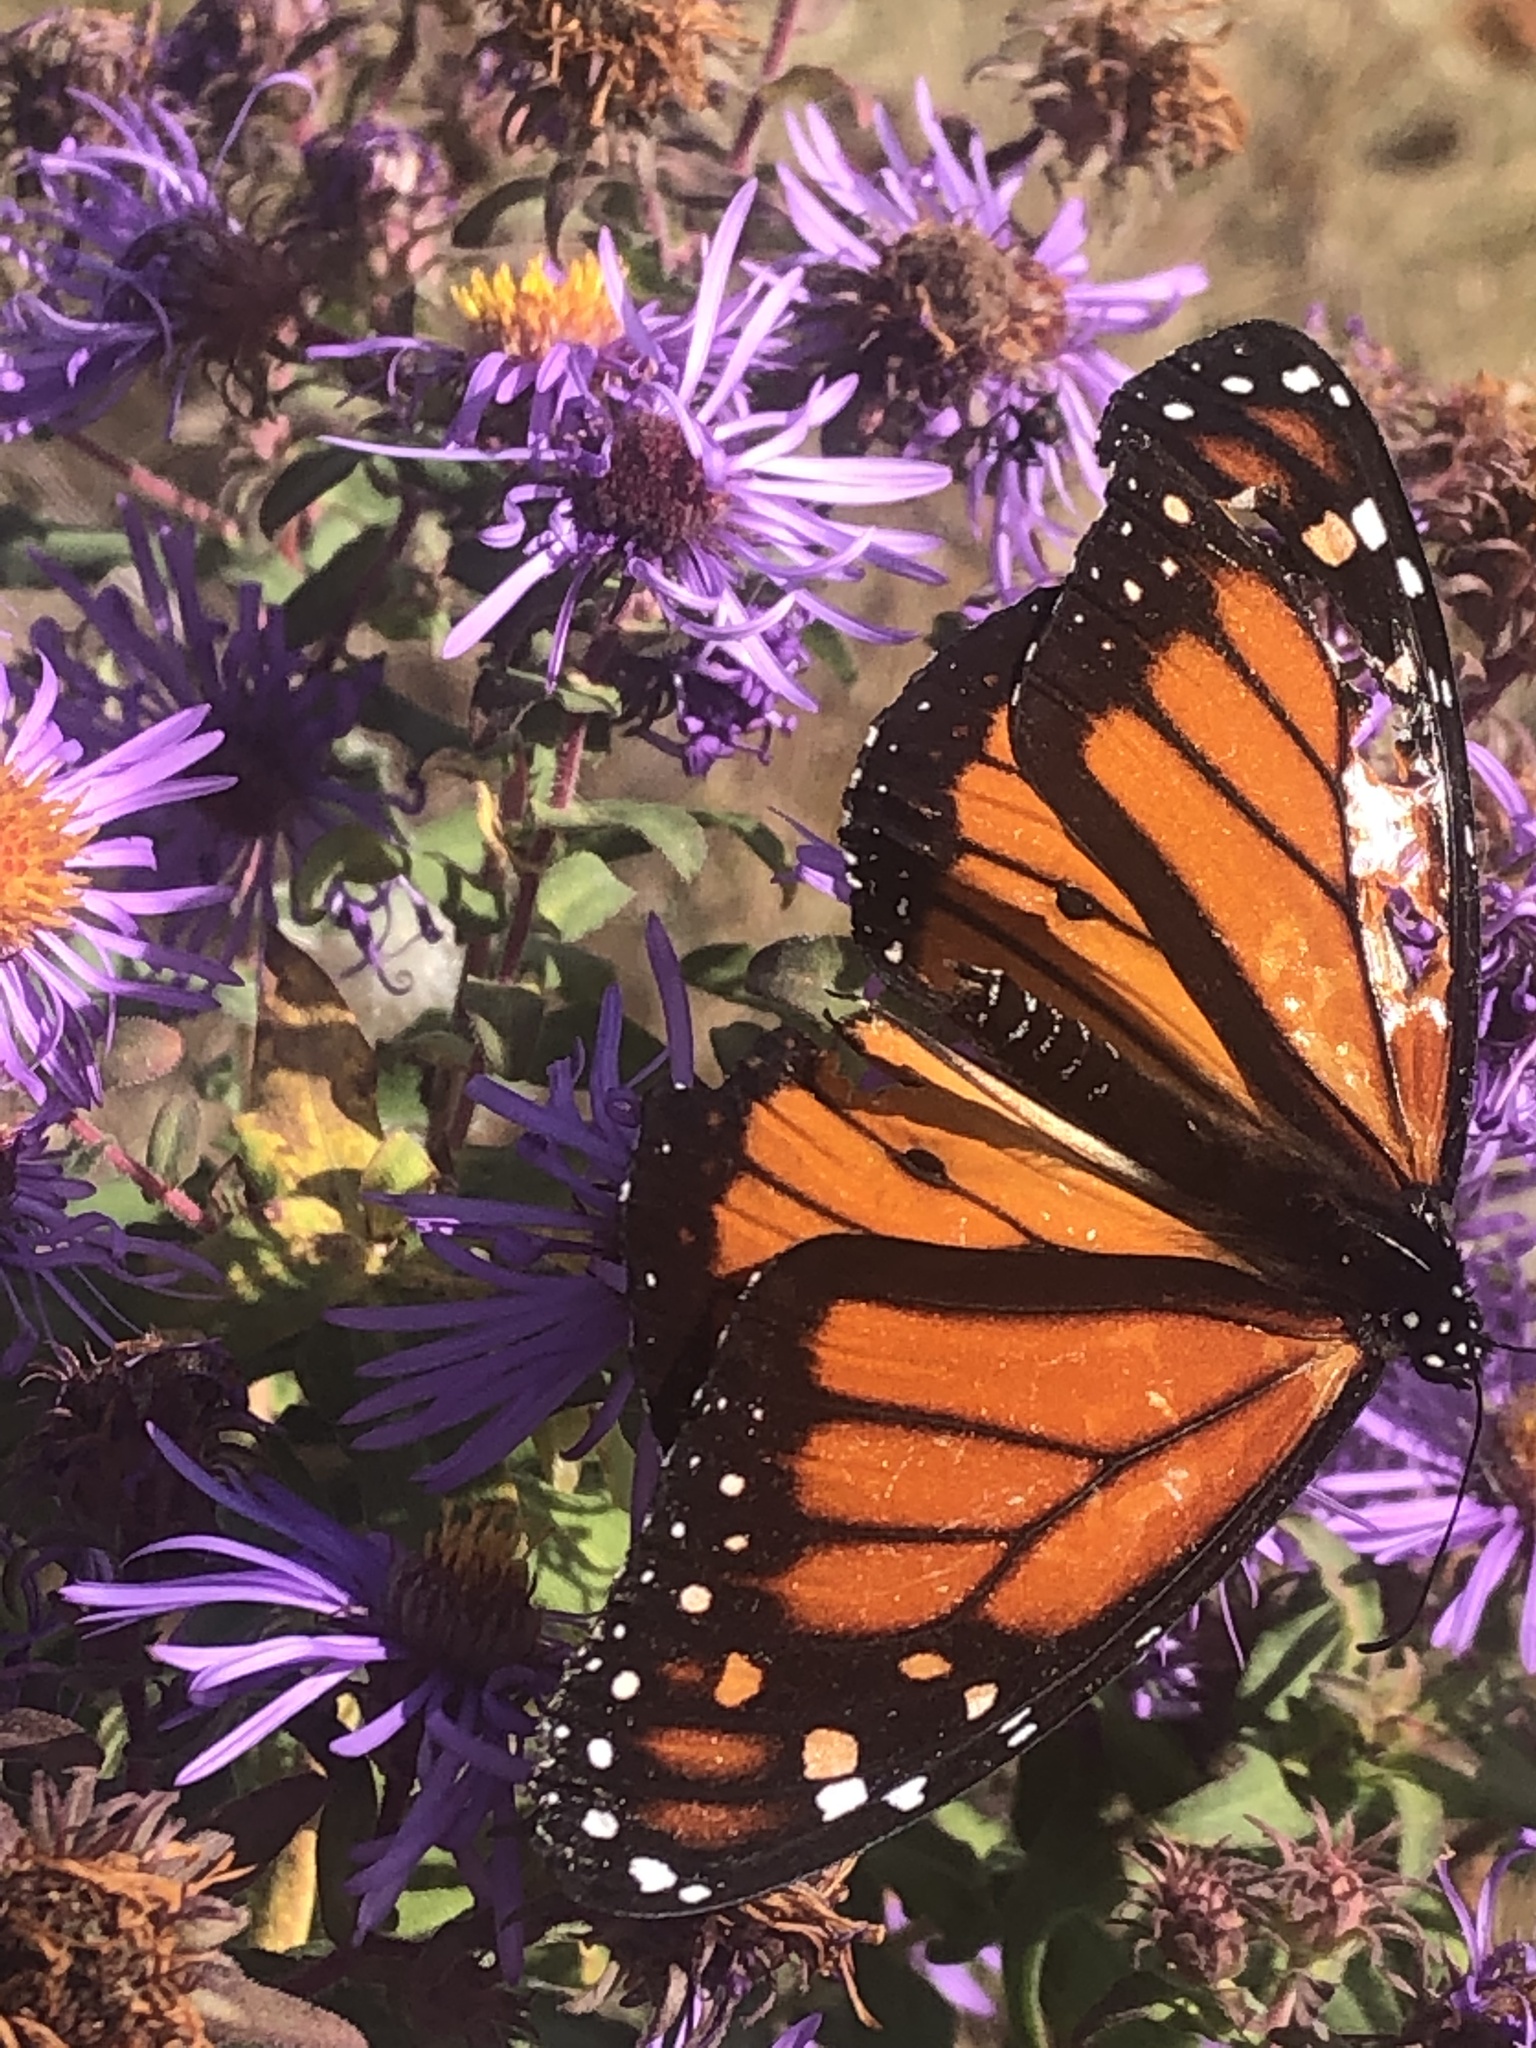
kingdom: Animalia
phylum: Arthropoda
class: Insecta
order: Lepidoptera
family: Nymphalidae
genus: Danaus
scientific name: Danaus plexippus
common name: Monarch
